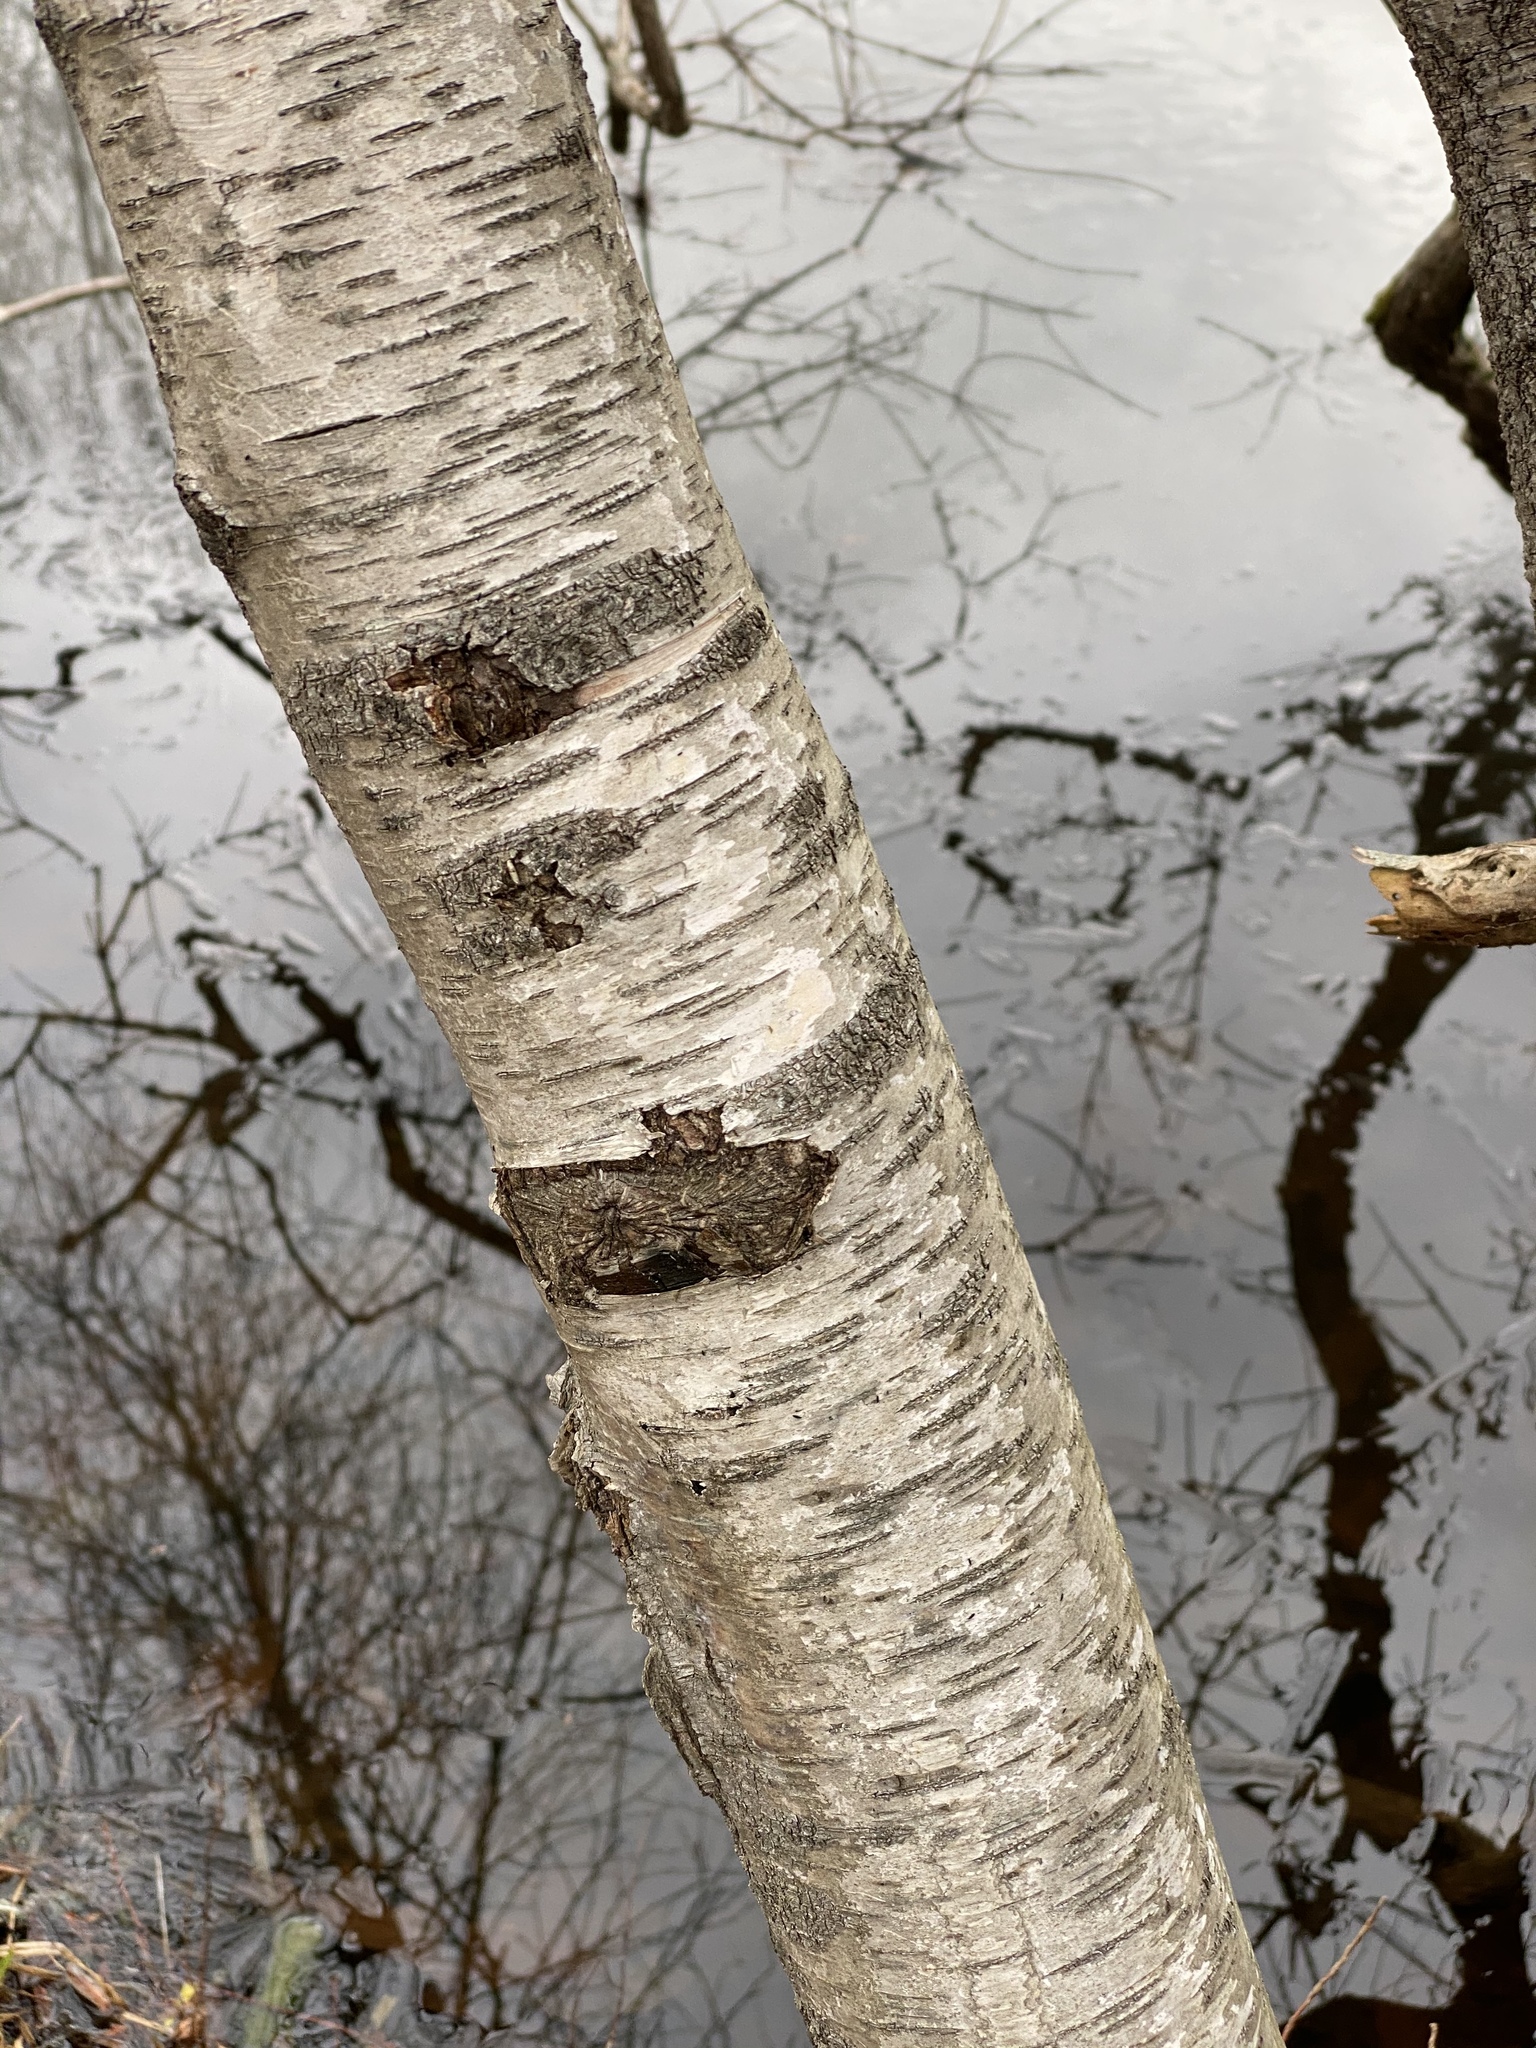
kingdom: Plantae
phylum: Tracheophyta
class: Magnoliopsida
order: Fagales
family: Betulaceae
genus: Betula
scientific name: Betula populifolia
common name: Fire birch
